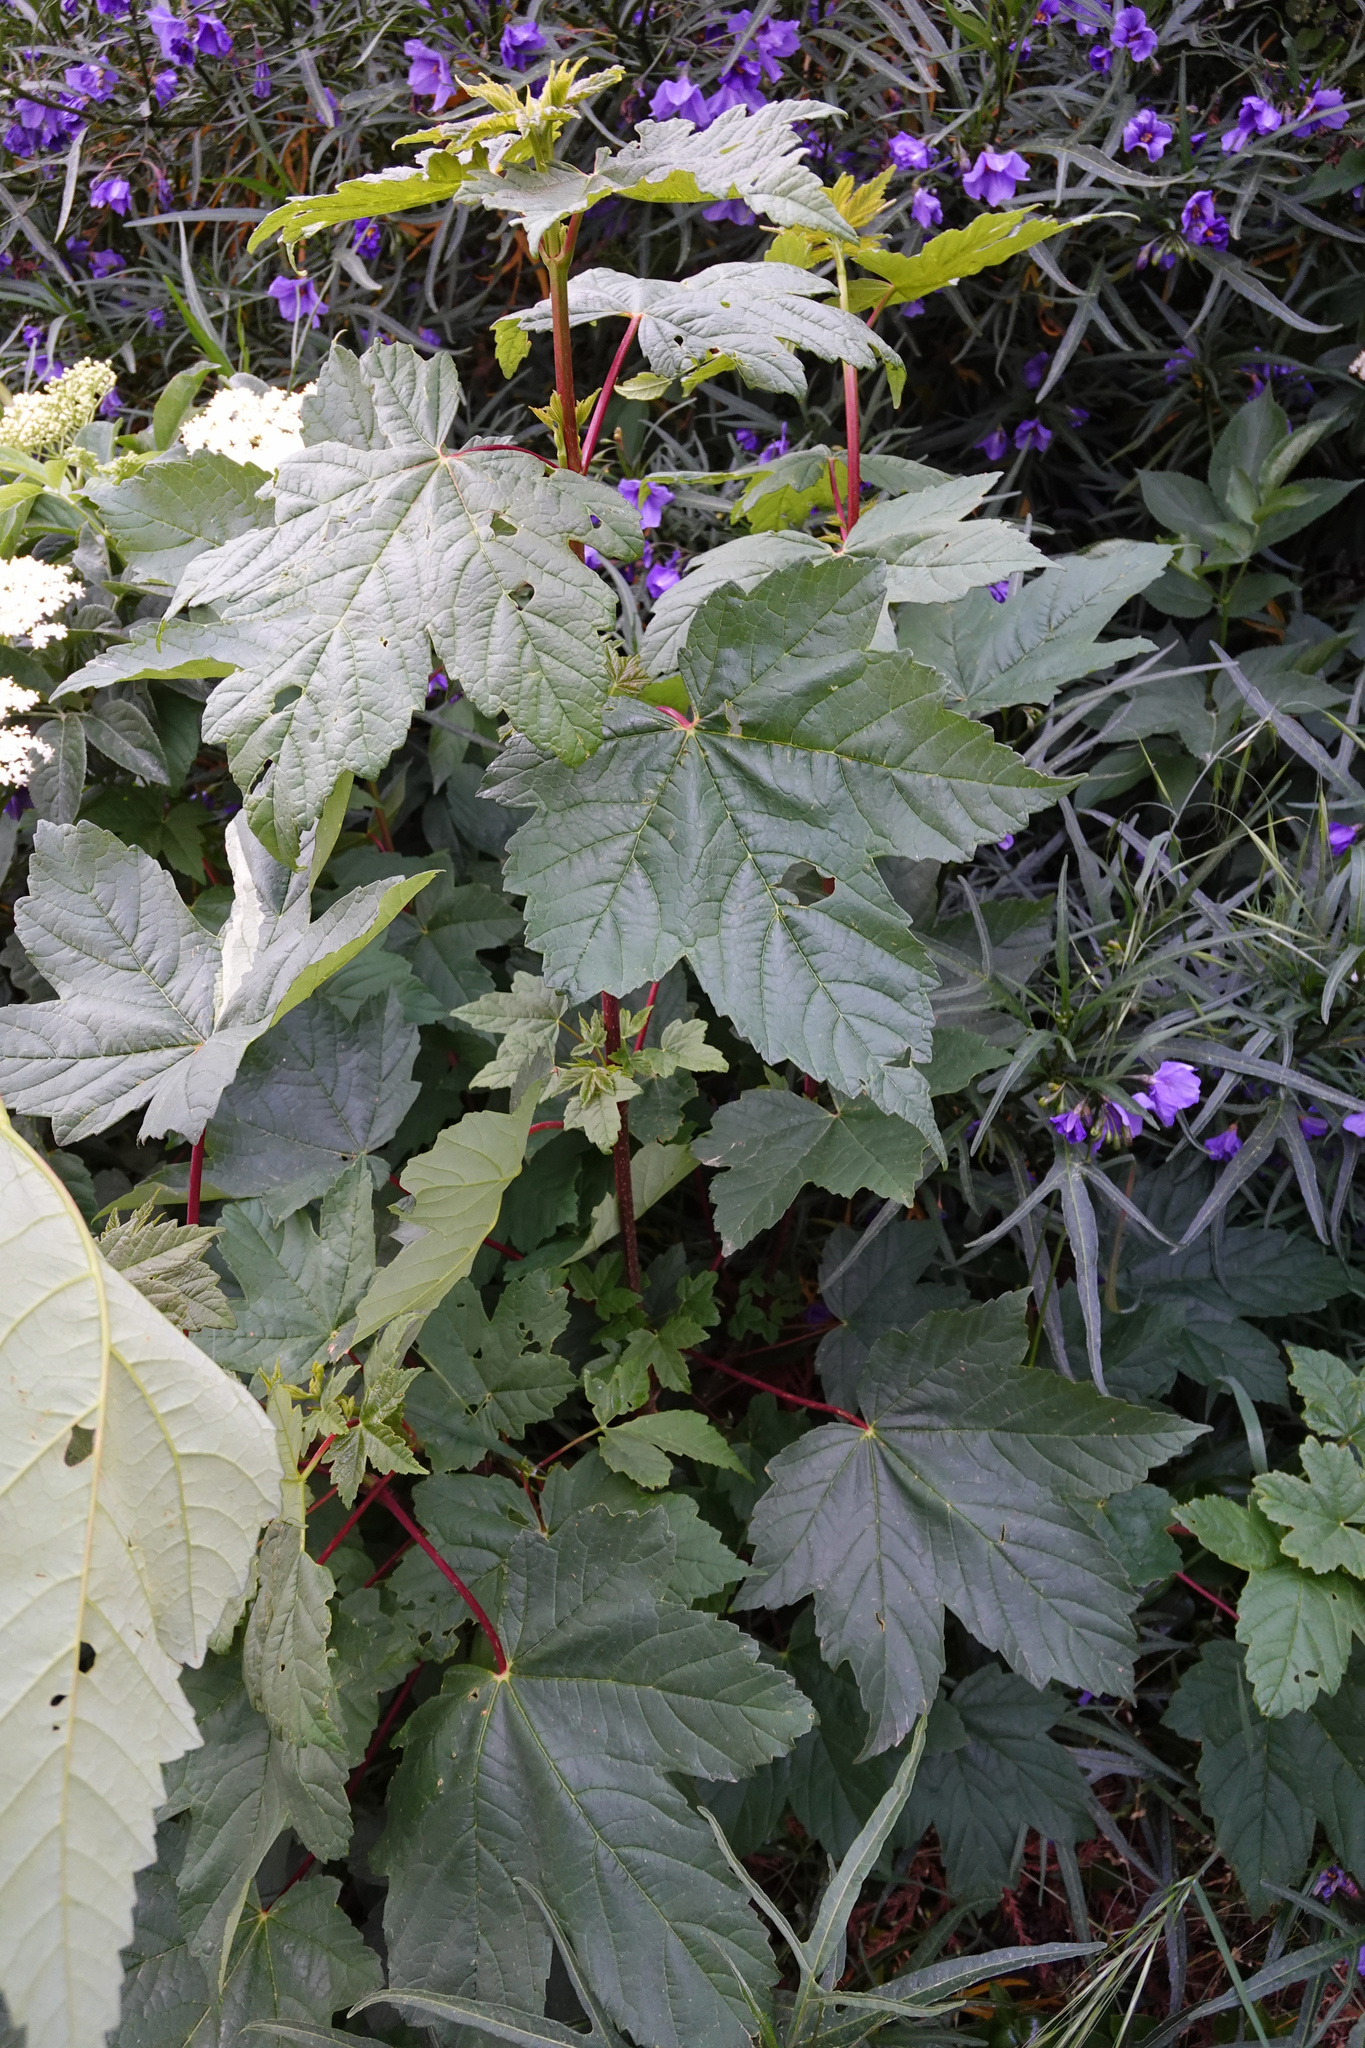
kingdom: Plantae
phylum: Tracheophyta
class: Magnoliopsida
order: Sapindales
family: Sapindaceae
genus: Acer
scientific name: Acer pseudoplatanus
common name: Sycamore
